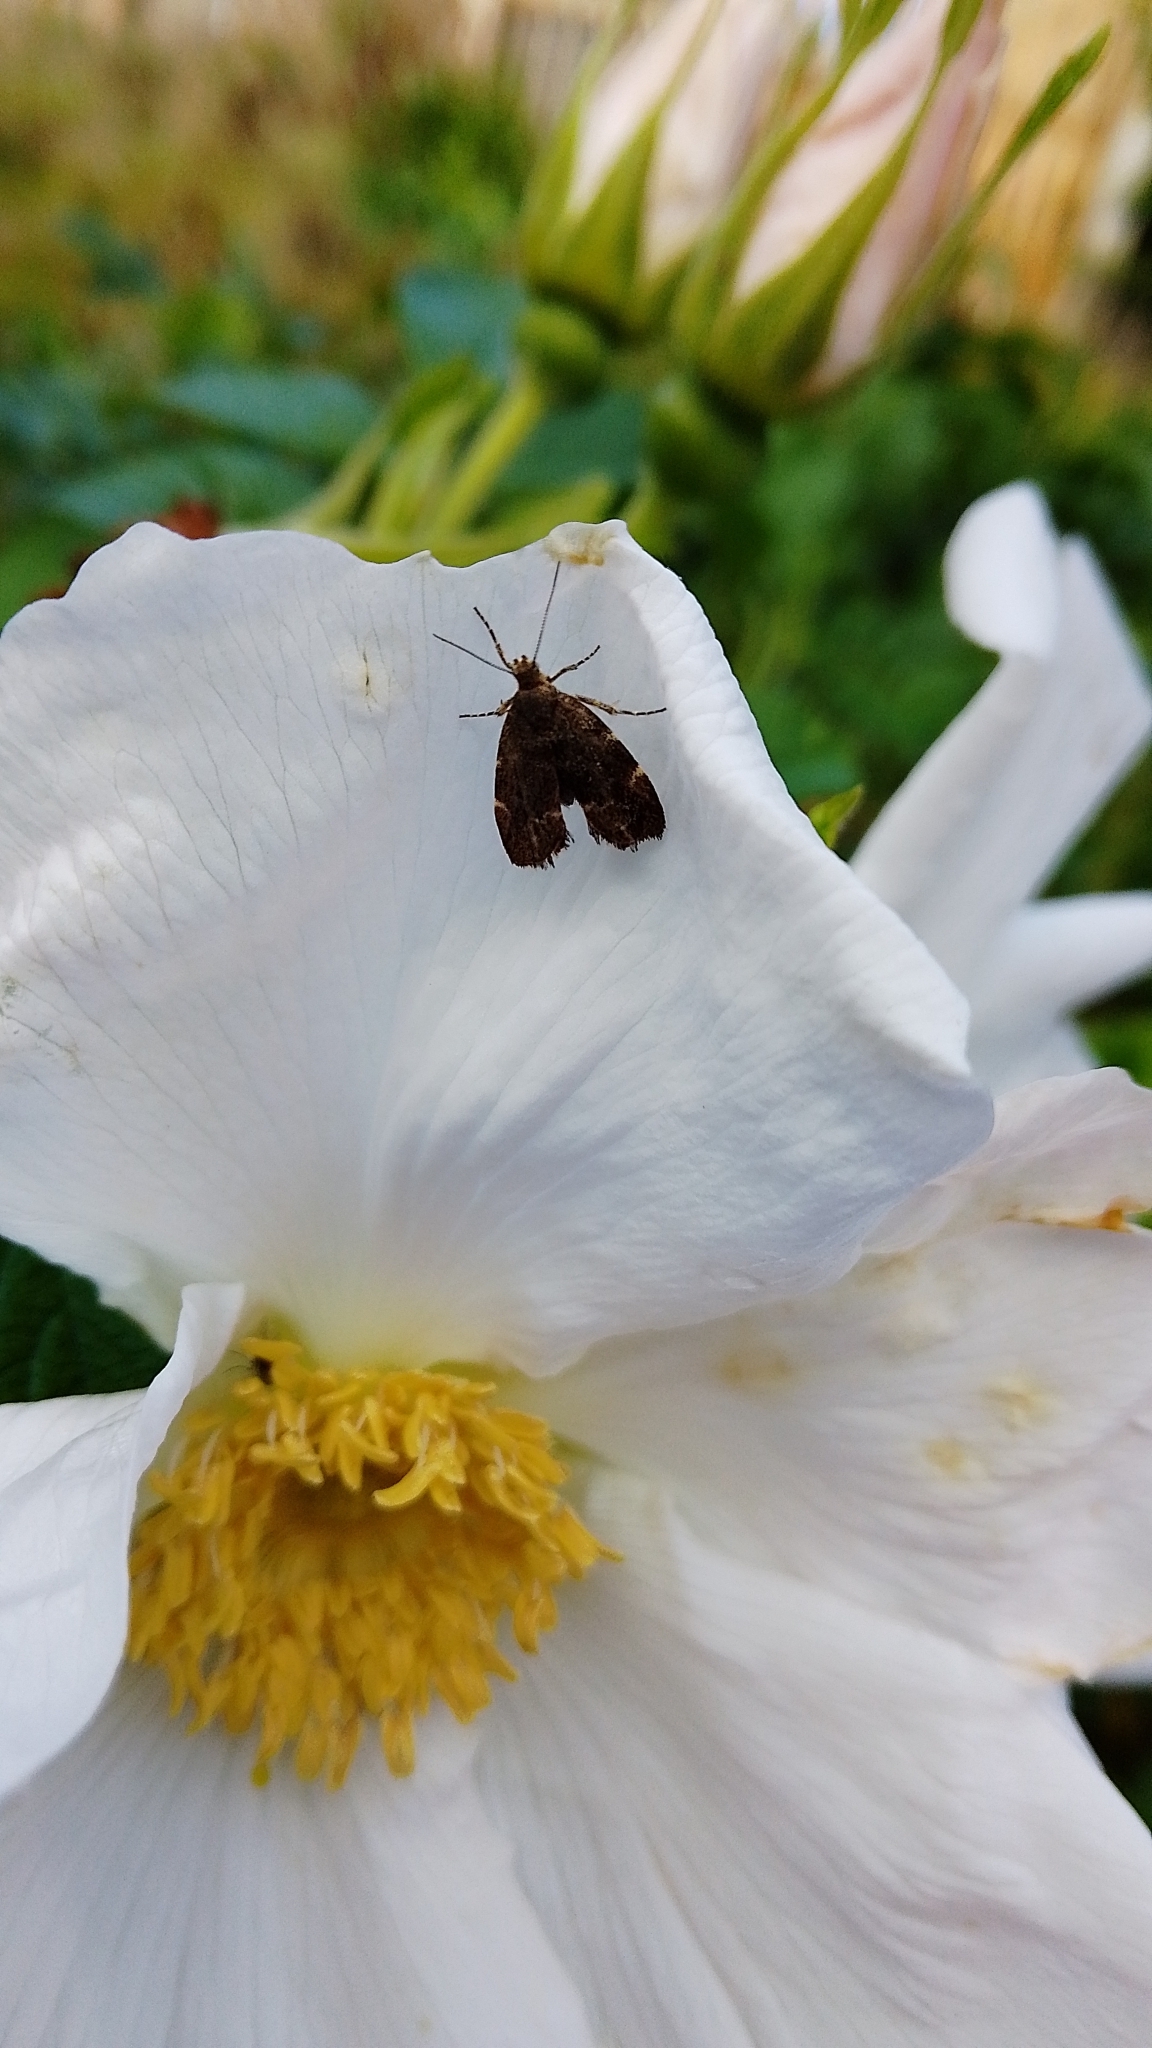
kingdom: Animalia
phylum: Arthropoda
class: Insecta
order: Lepidoptera
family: Choreutidae
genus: Anthophila
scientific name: Anthophila fabriciana
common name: Nettle-tap
